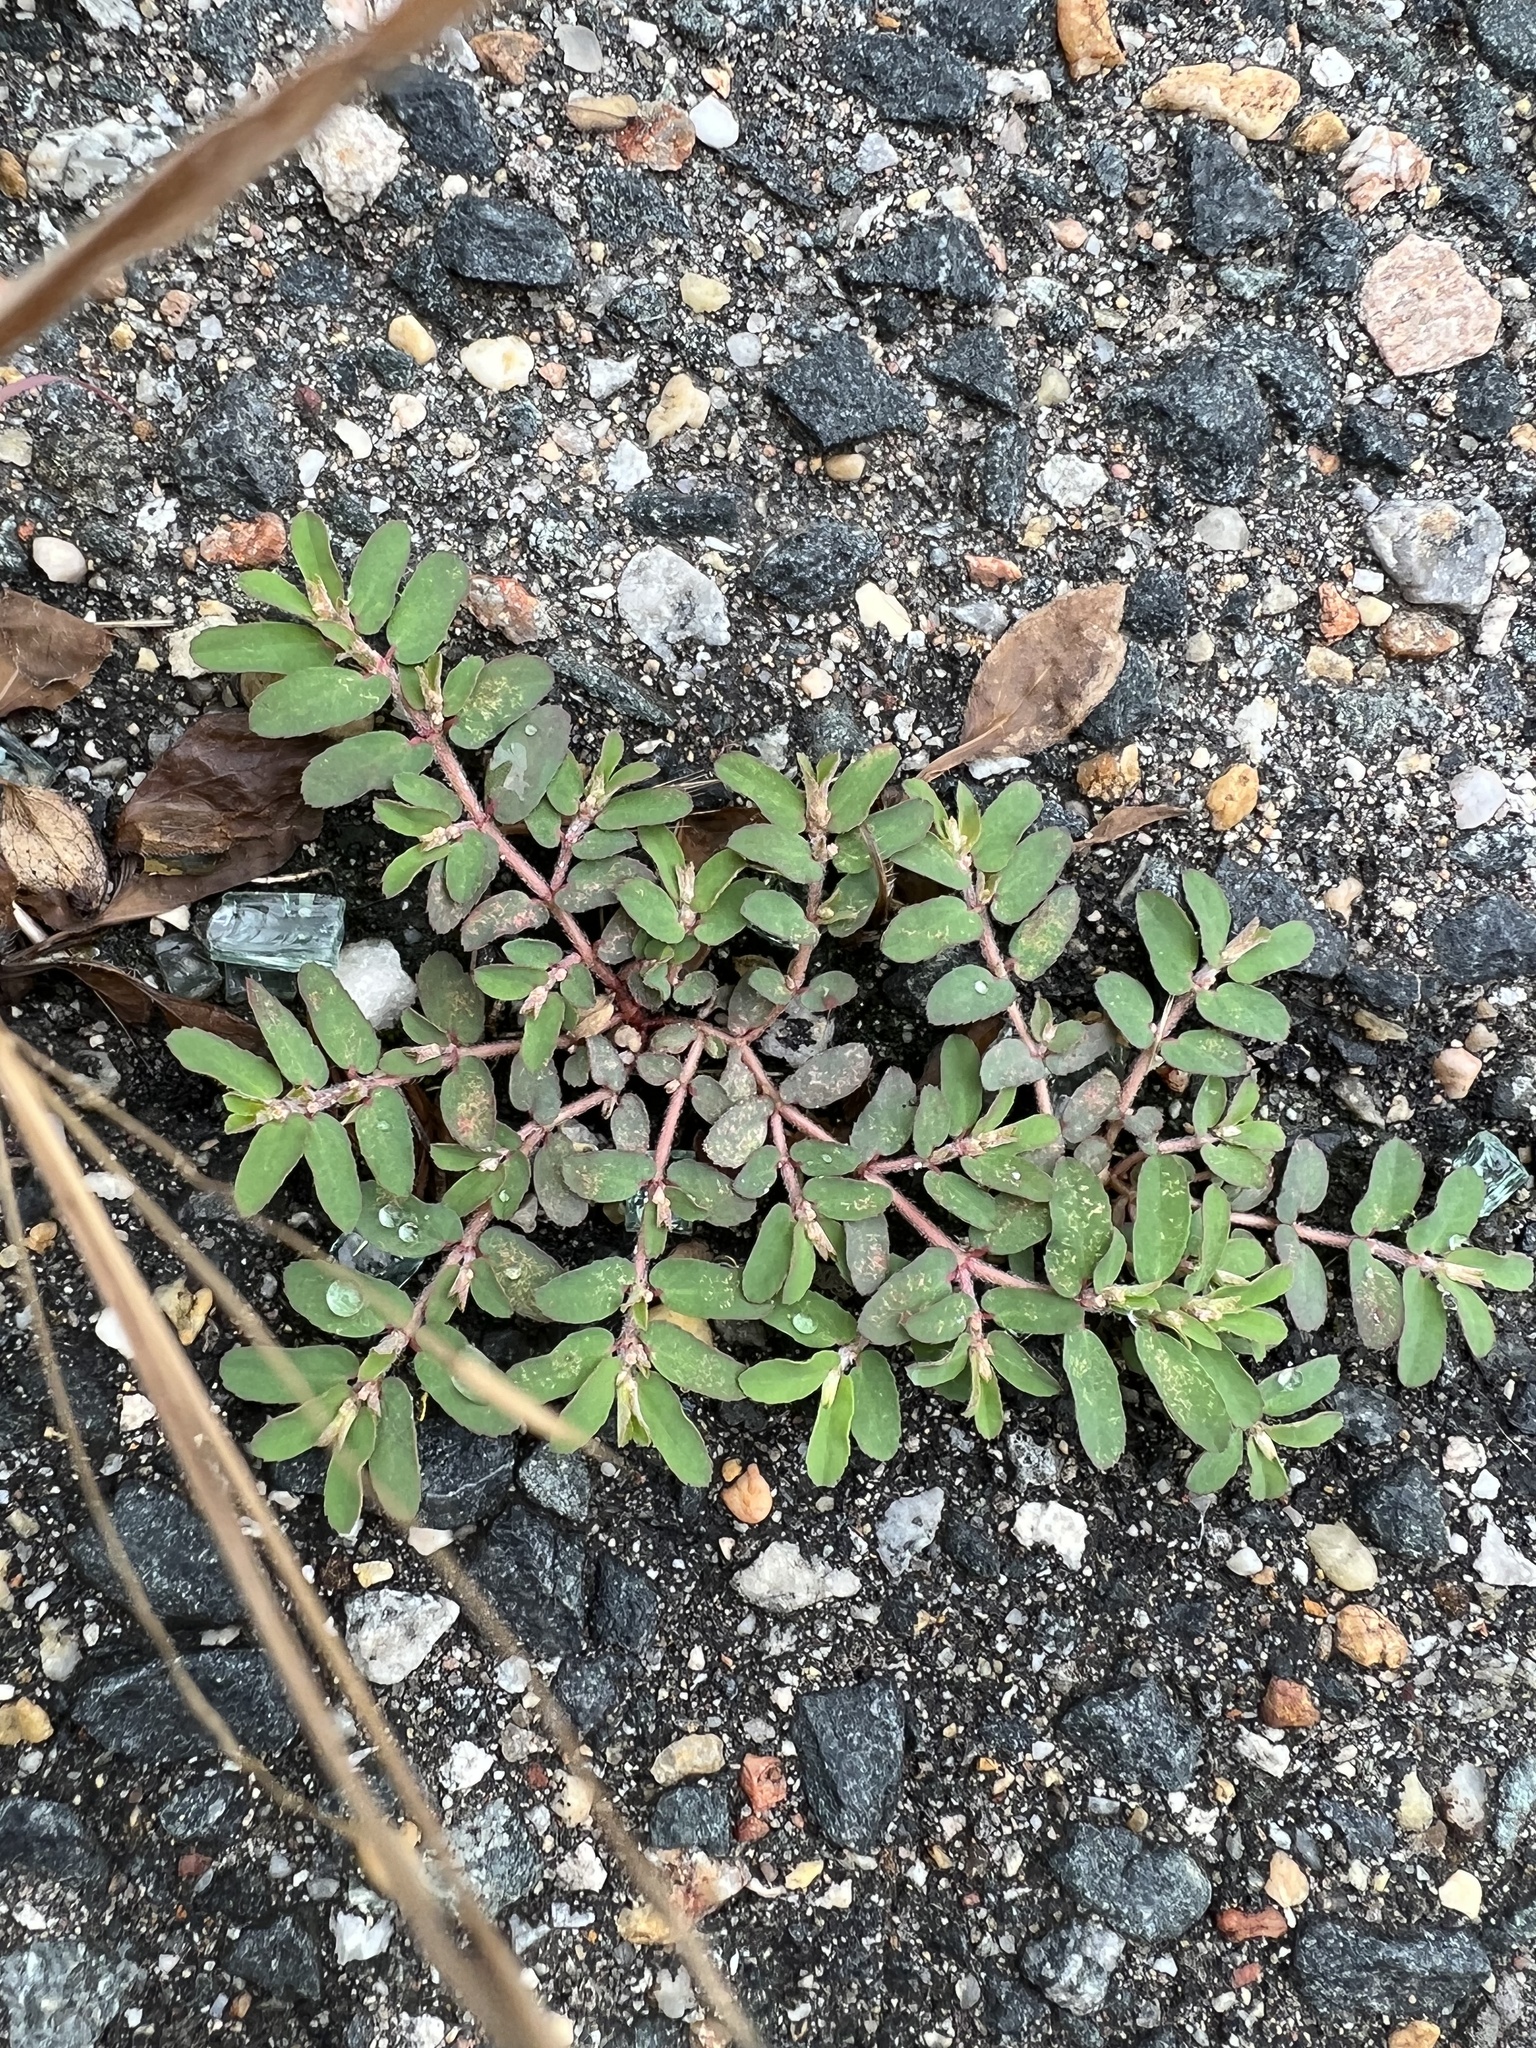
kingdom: Plantae
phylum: Tracheophyta
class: Magnoliopsida
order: Malpighiales
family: Euphorbiaceae
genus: Euphorbia
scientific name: Euphorbia maculata
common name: Spotted spurge
